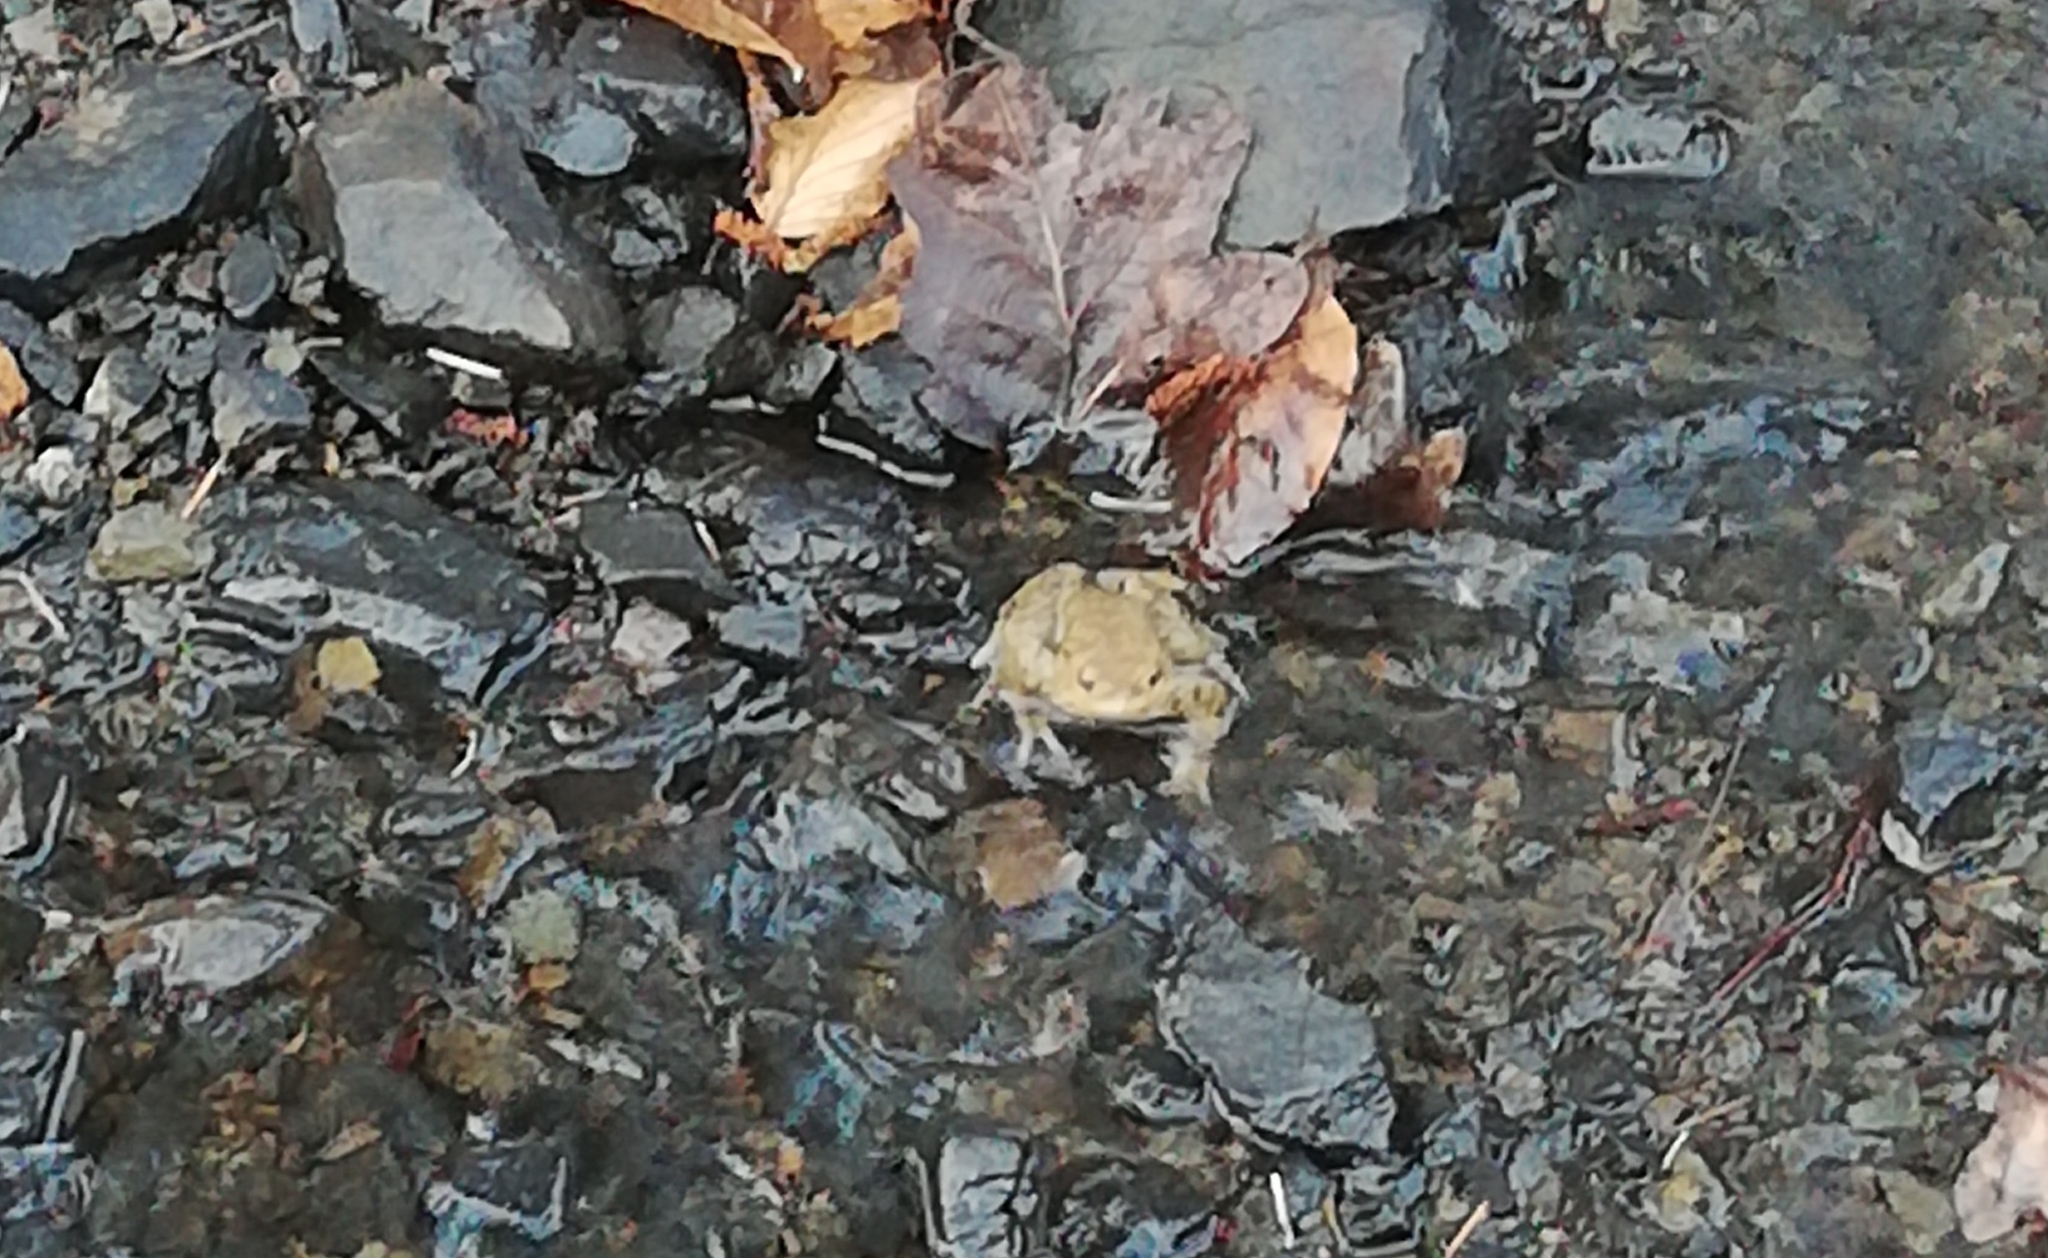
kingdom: Animalia
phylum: Chordata
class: Amphibia
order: Anura
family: Bufonidae
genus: Bufo
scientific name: Bufo bufo
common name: Common toad
